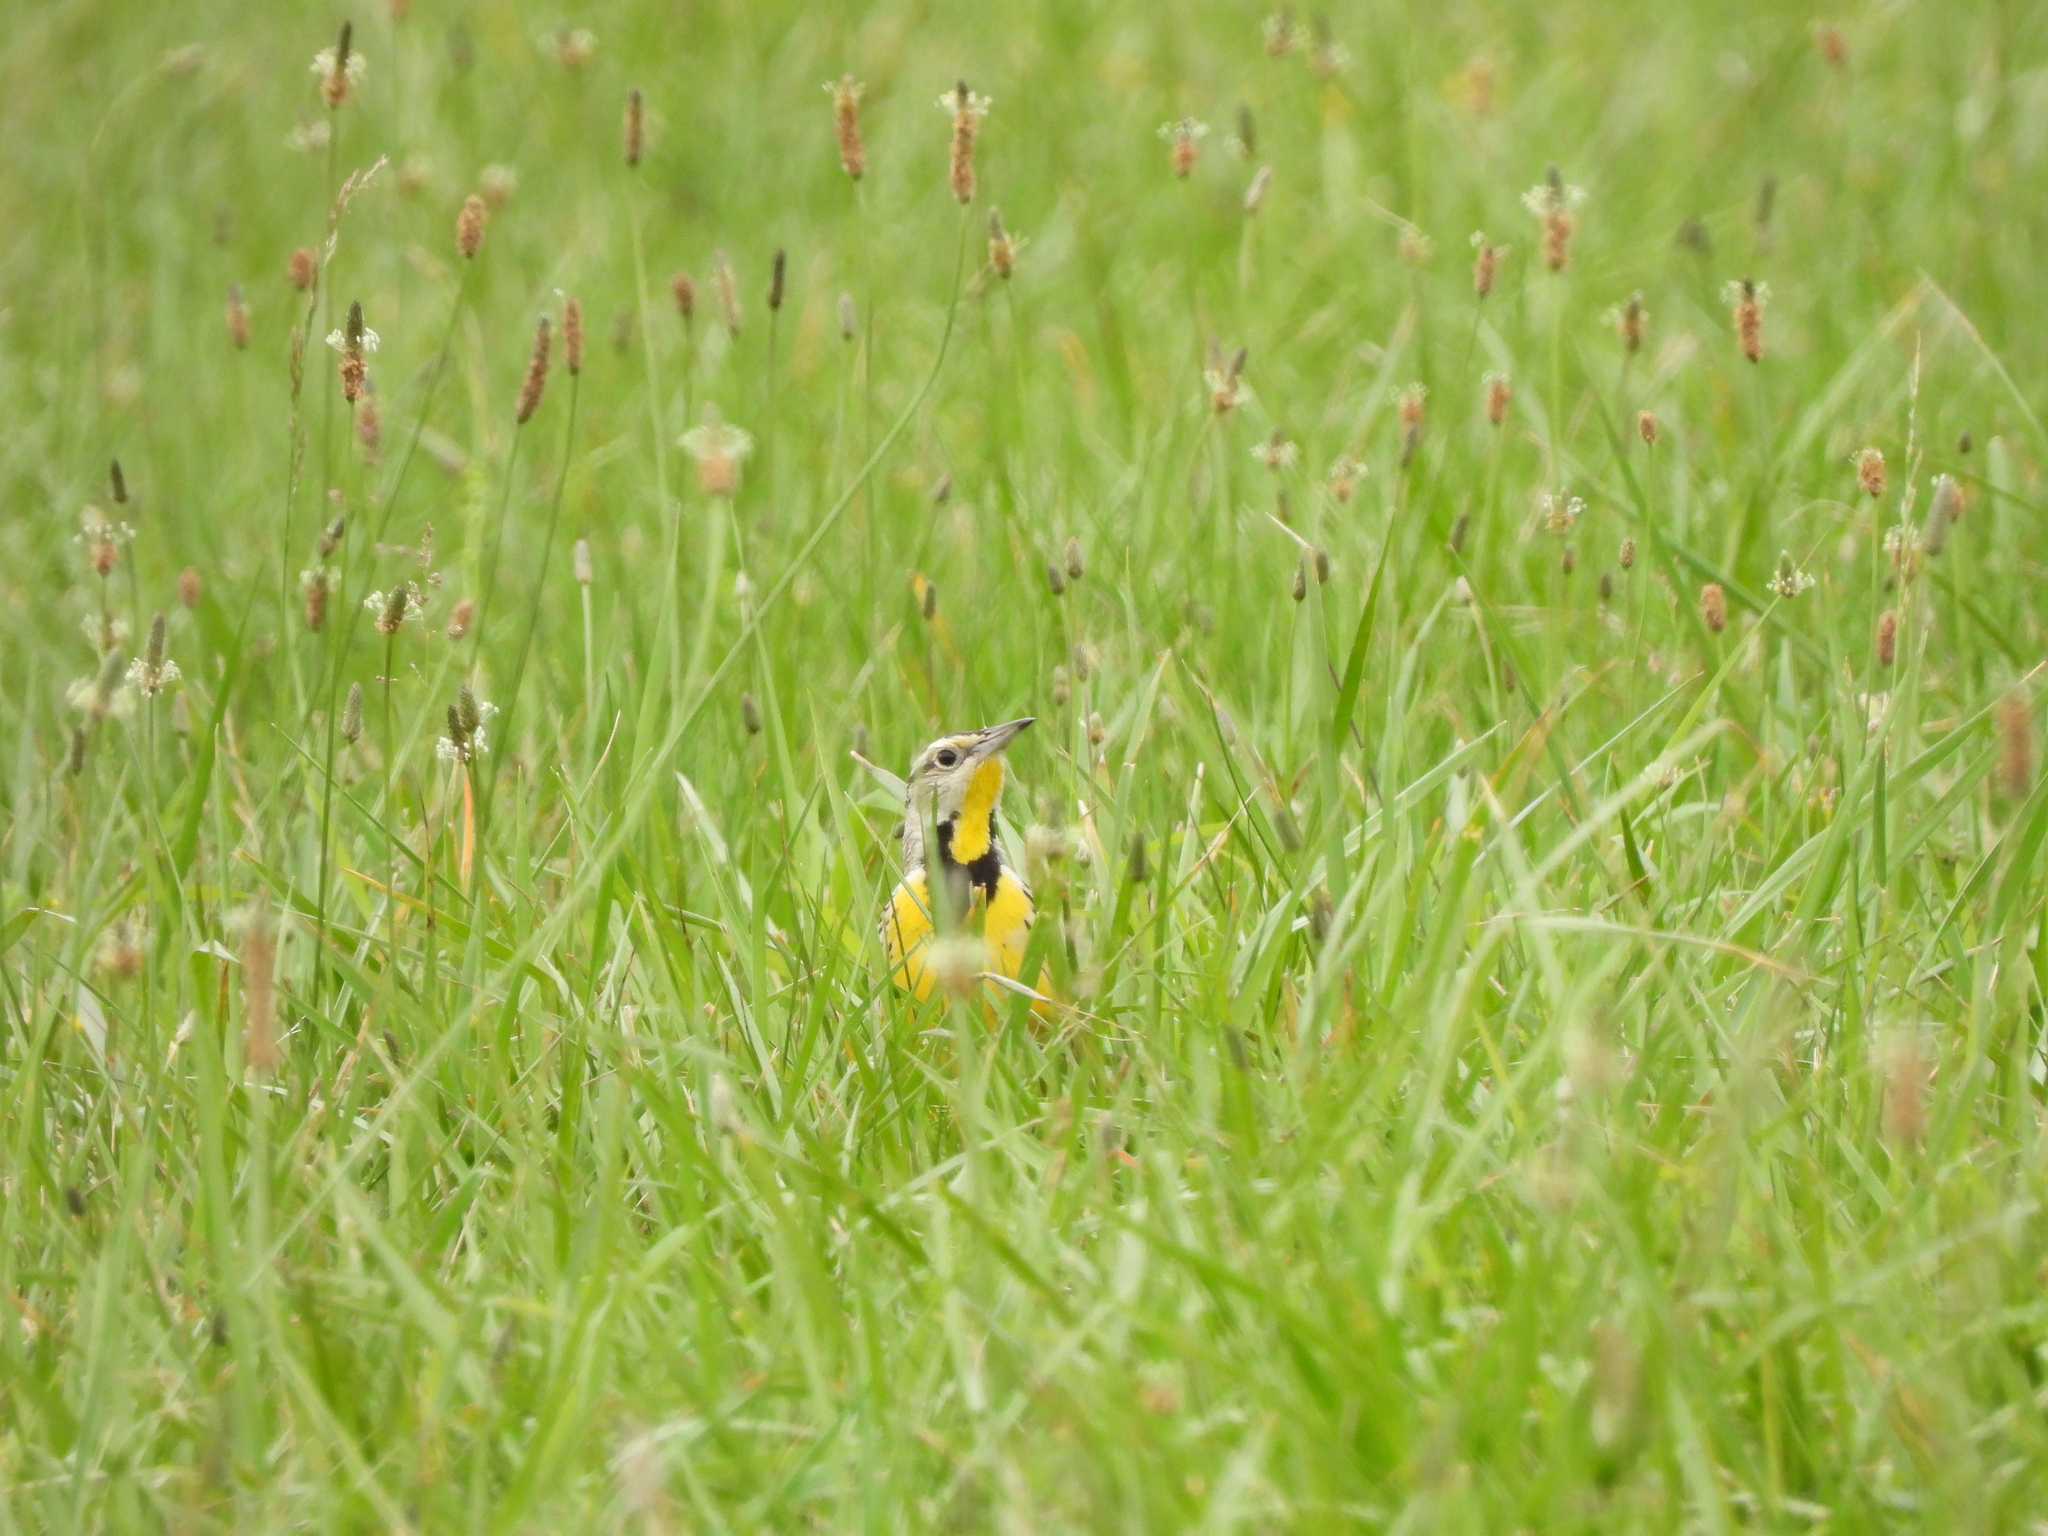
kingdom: Animalia
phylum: Chordata
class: Aves
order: Passeriformes
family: Icteridae
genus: Sturnella
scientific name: Sturnella magna
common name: Eastern meadowlark
